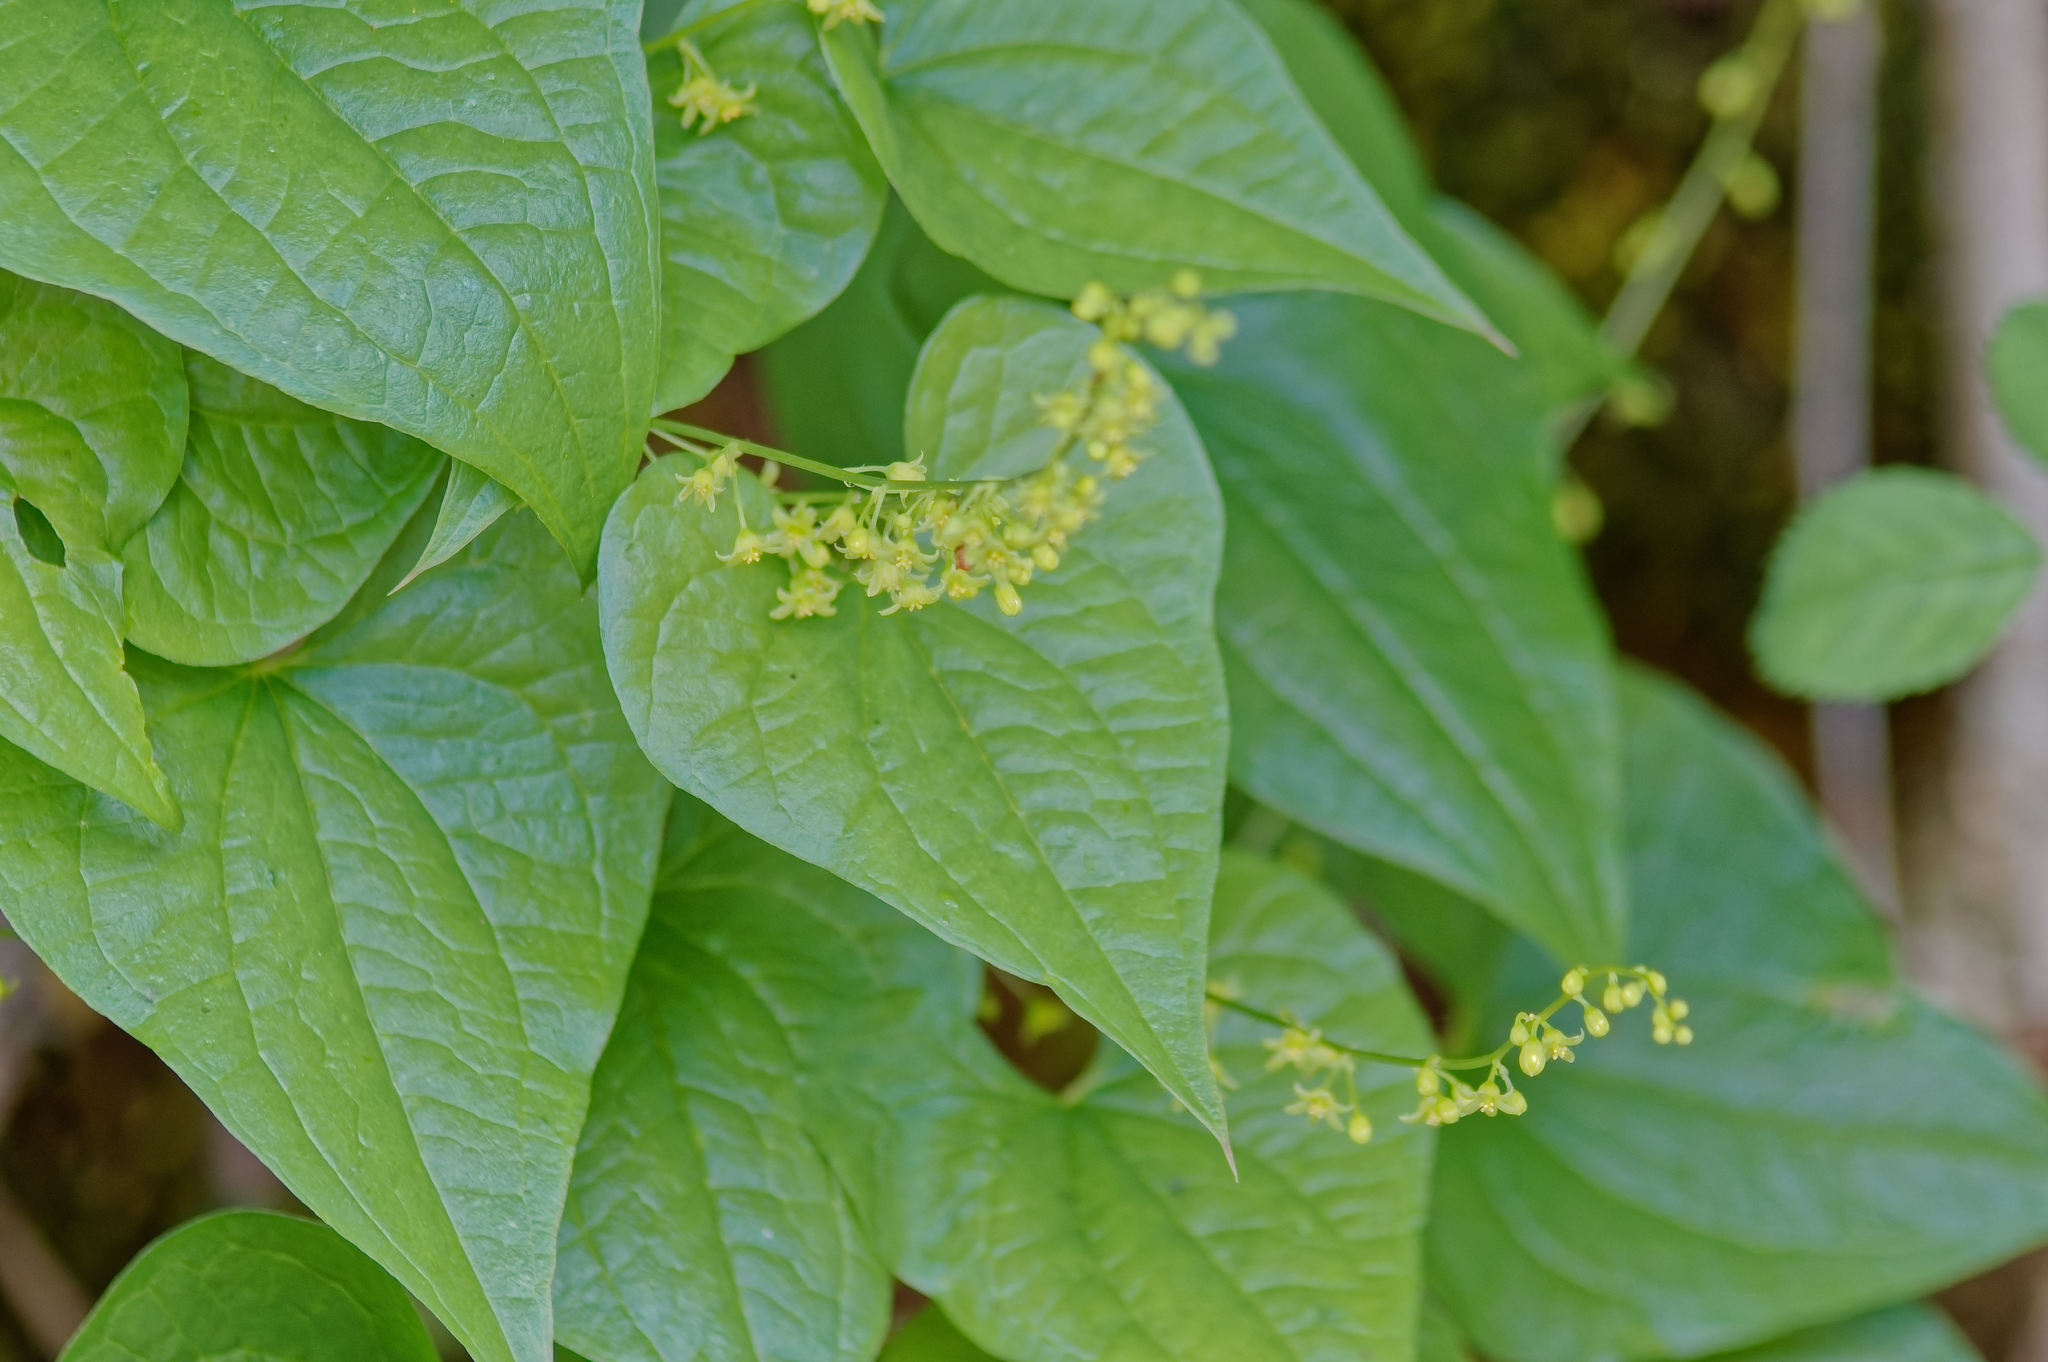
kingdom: Plantae
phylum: Tracheophyta
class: Liliopsida
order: Dioscoreales
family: Dioscoreaceae
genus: Dioscorea
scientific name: Dioscorea communis
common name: Black-bindweed
